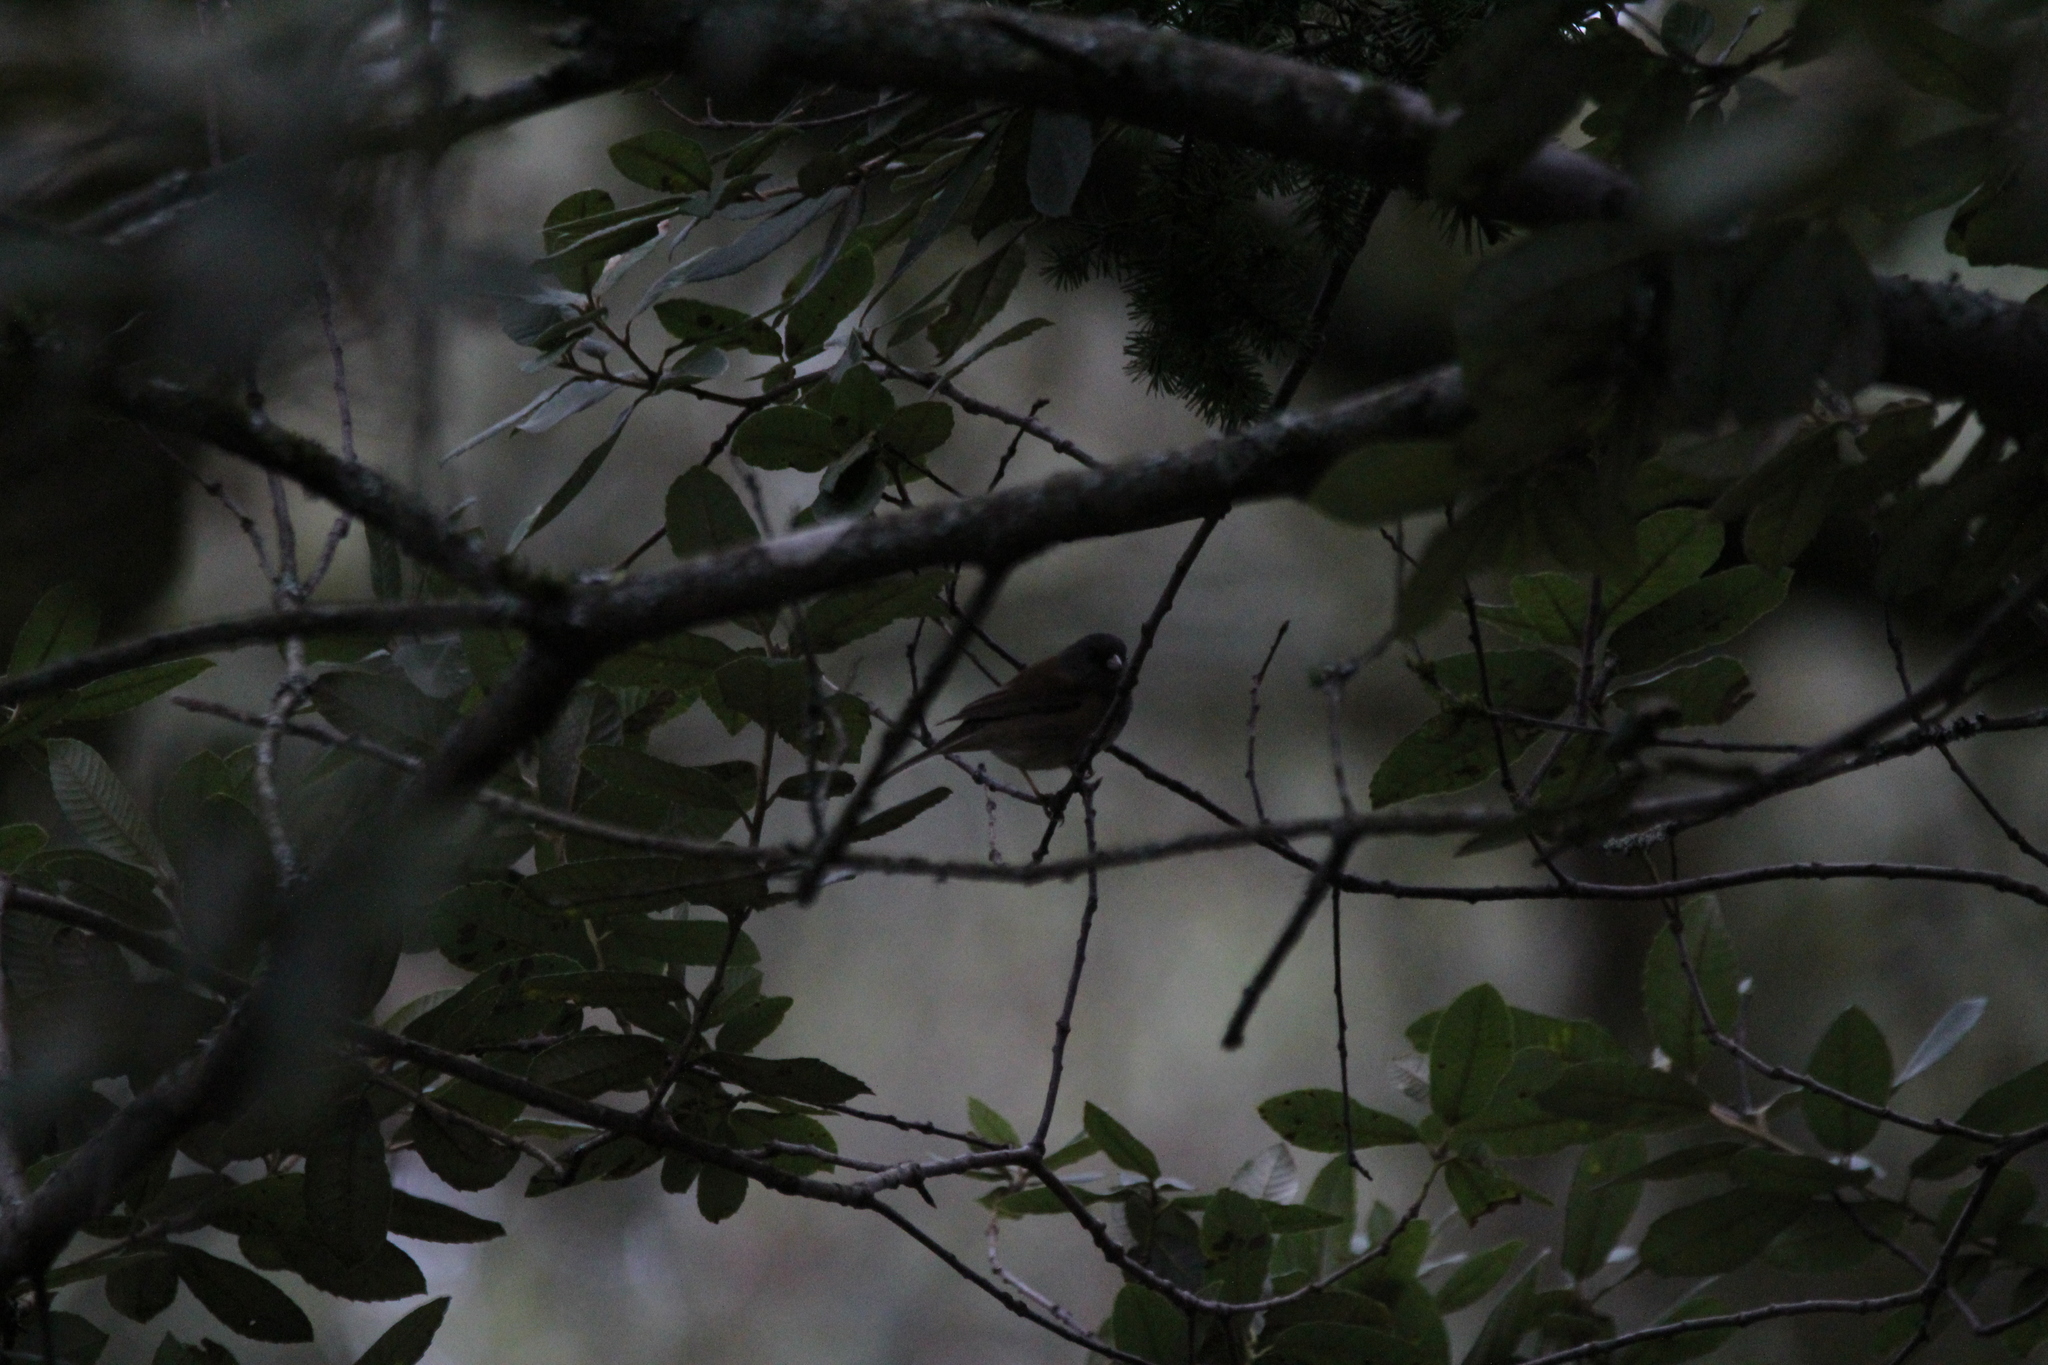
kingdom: Animalia
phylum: Chordata
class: Aves
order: Passeriformes
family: Passerellidae
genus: Junco
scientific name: Junco hyemalis
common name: Dark-eyed junco
